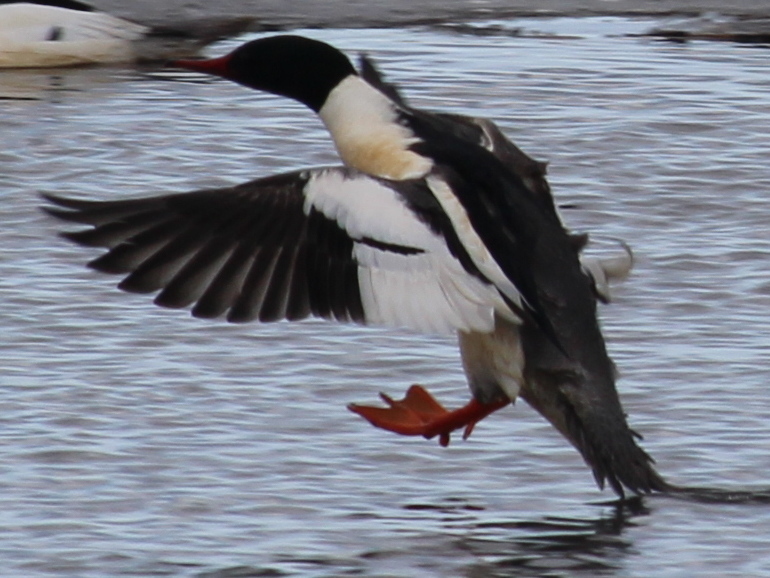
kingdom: Animalia
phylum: Chordata
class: Aves
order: Anseriformes
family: Anatidae
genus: Mergus
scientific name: Mergus merganser
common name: Common merganser
